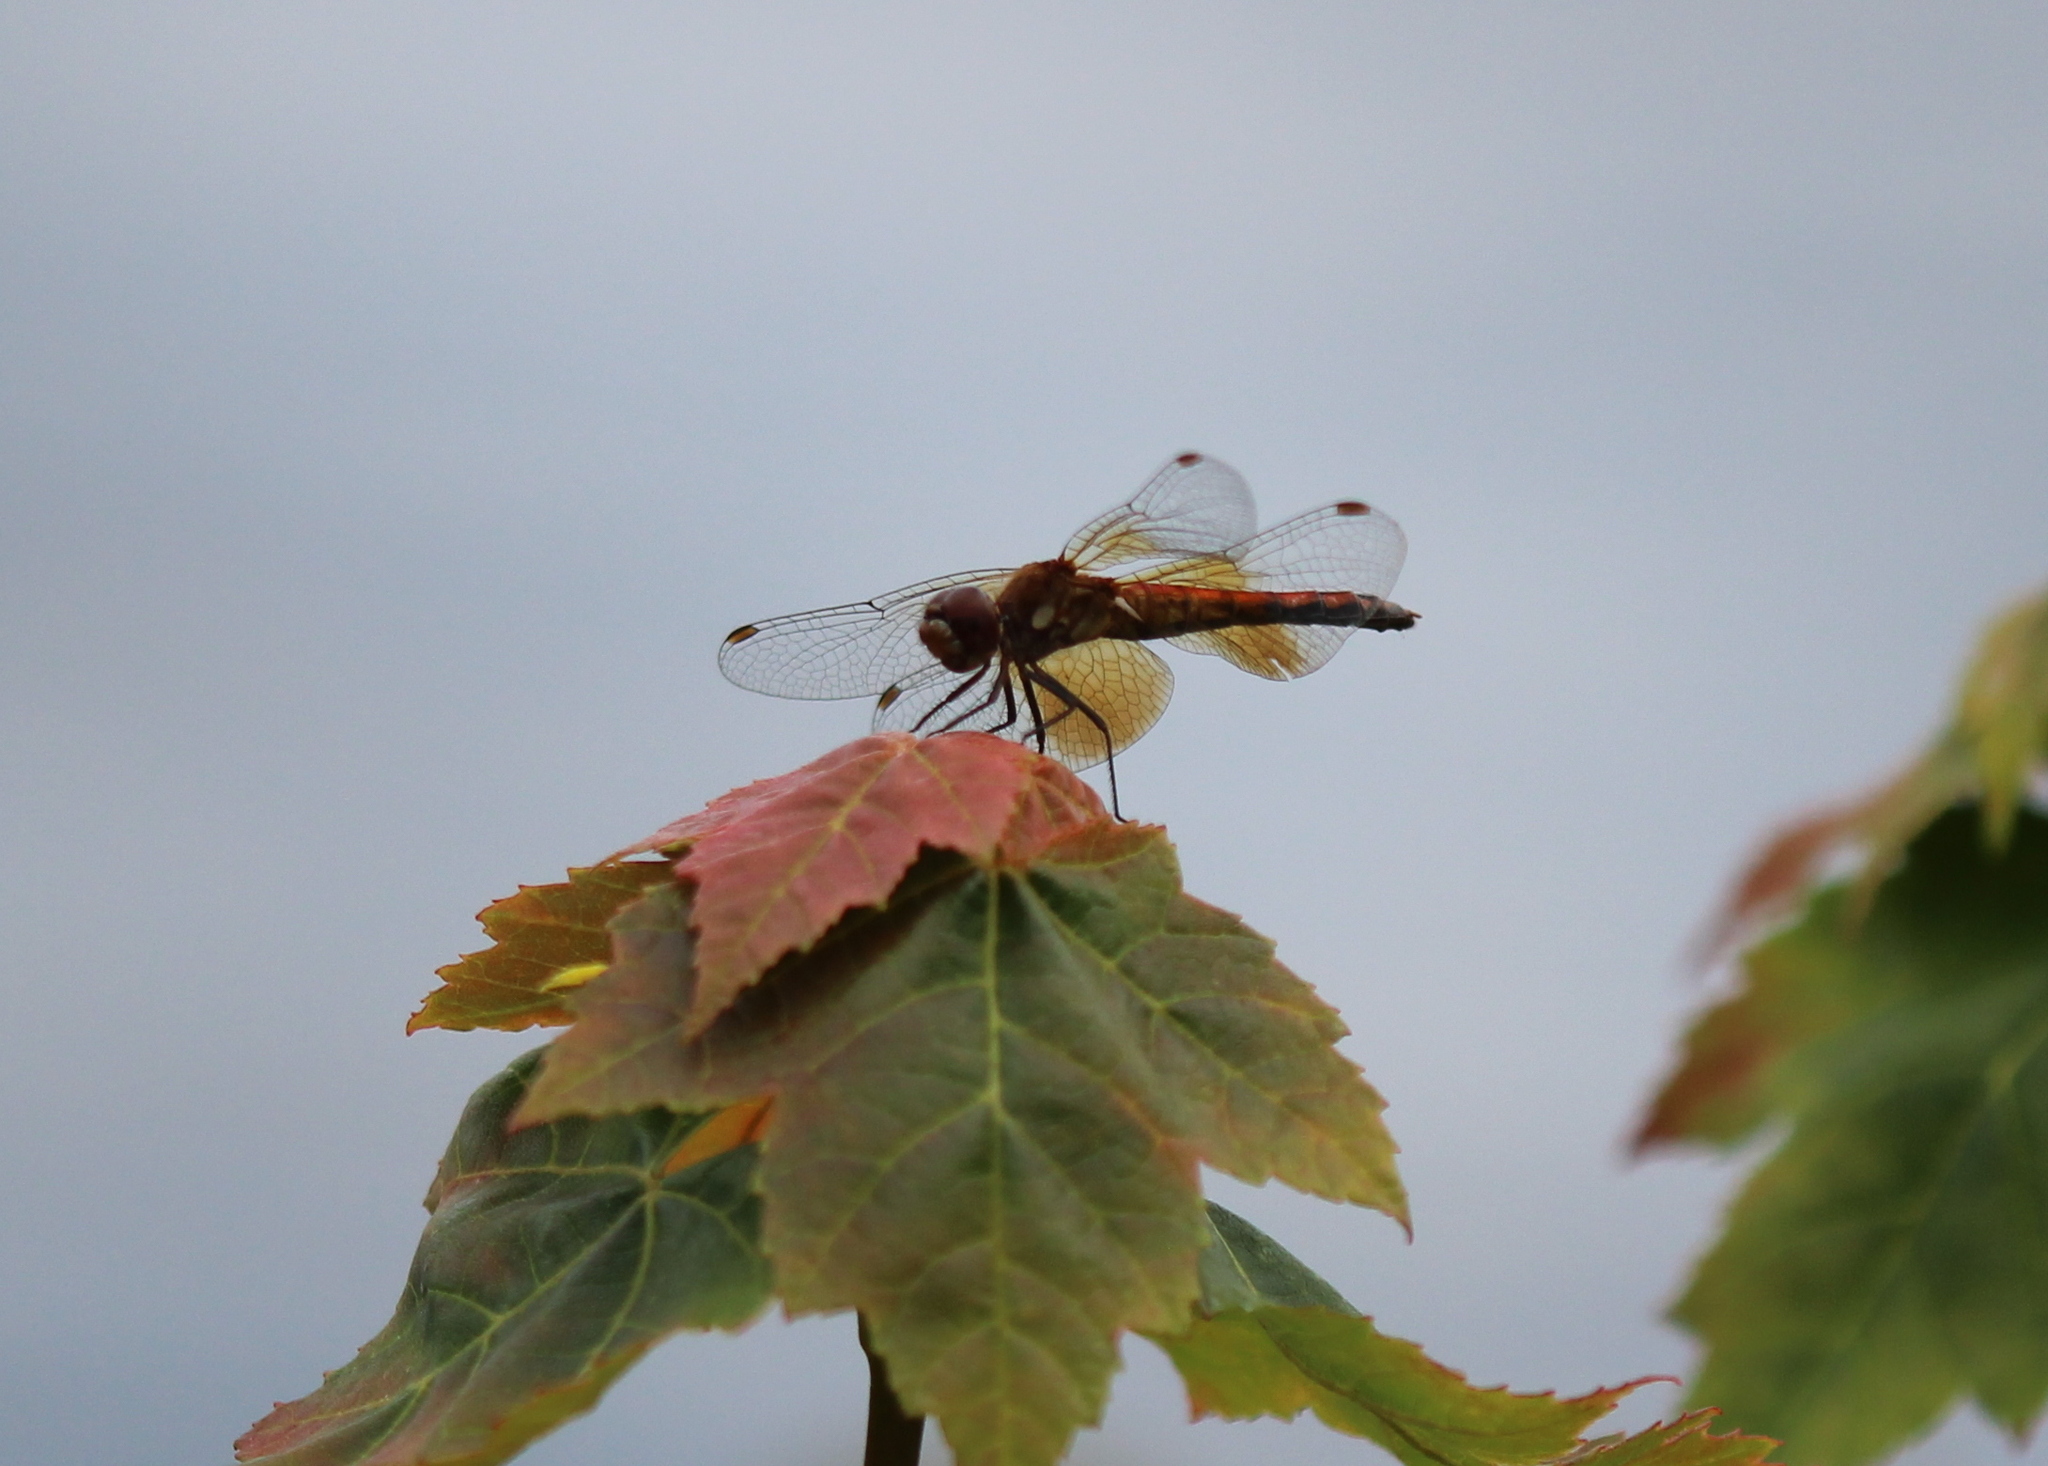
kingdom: Animalia
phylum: Arthropoda
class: Insecta
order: Odonata
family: Libellulidae
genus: Sympetrum
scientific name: Sympetrum semicinctum
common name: Band-winged meadowhawk
